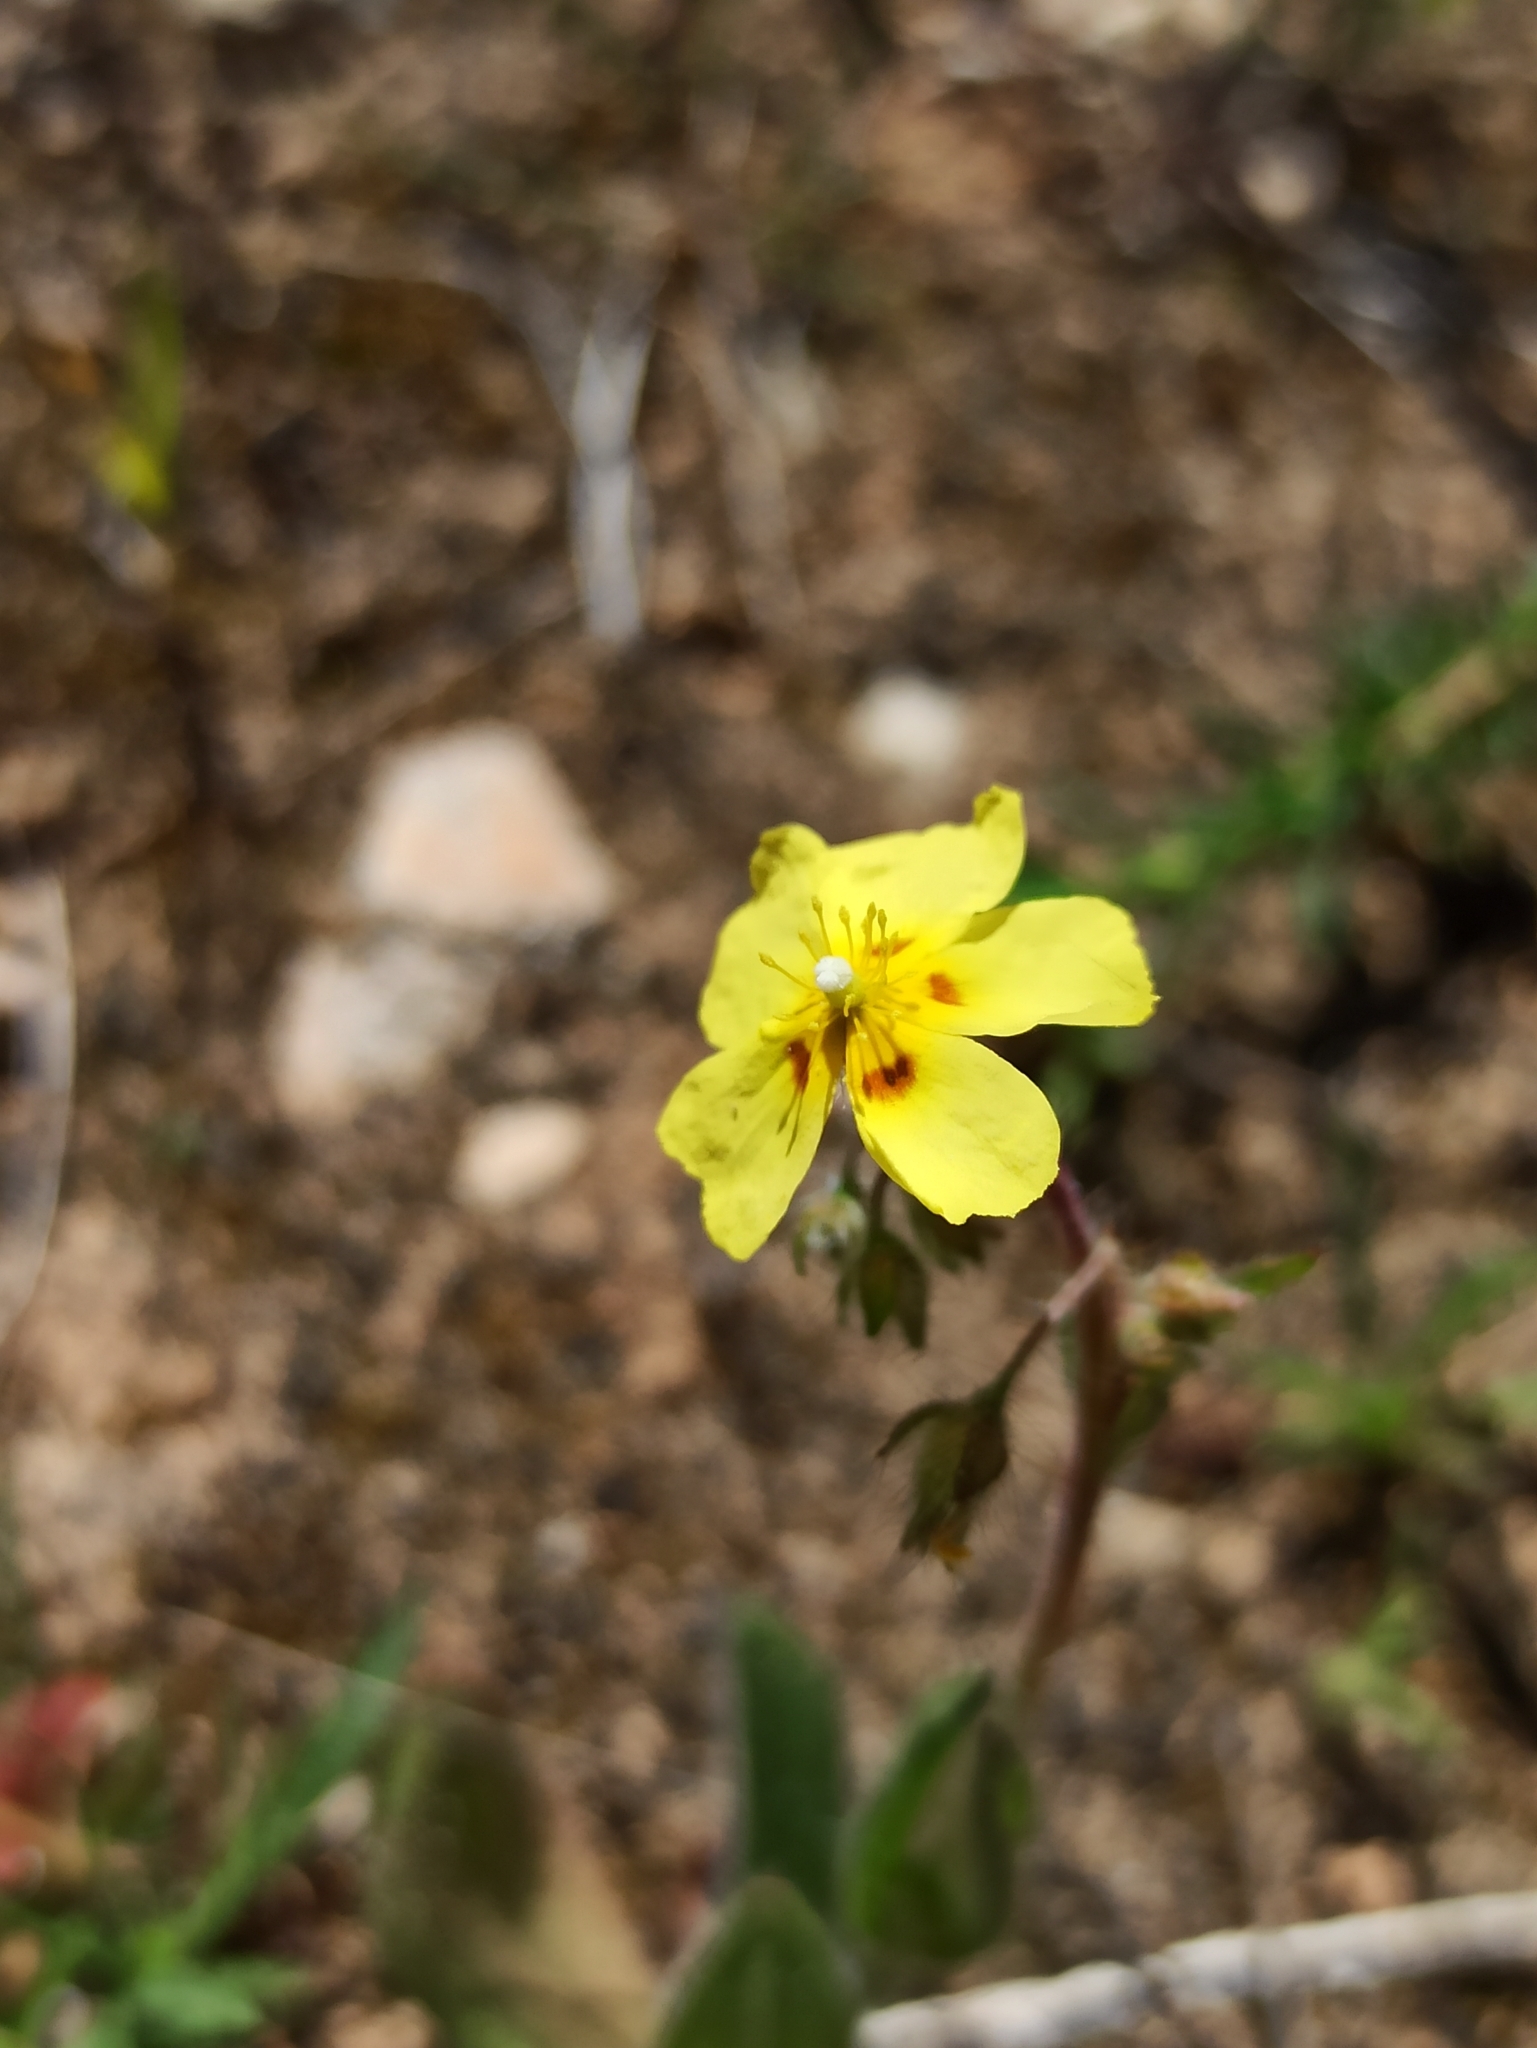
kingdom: Plantae
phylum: Tracheophyta
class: Magnoliopsida
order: Malvales
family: Cistaceae
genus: Tuberaria
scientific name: Tuberaria guttata
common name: Spotted rock-rose
